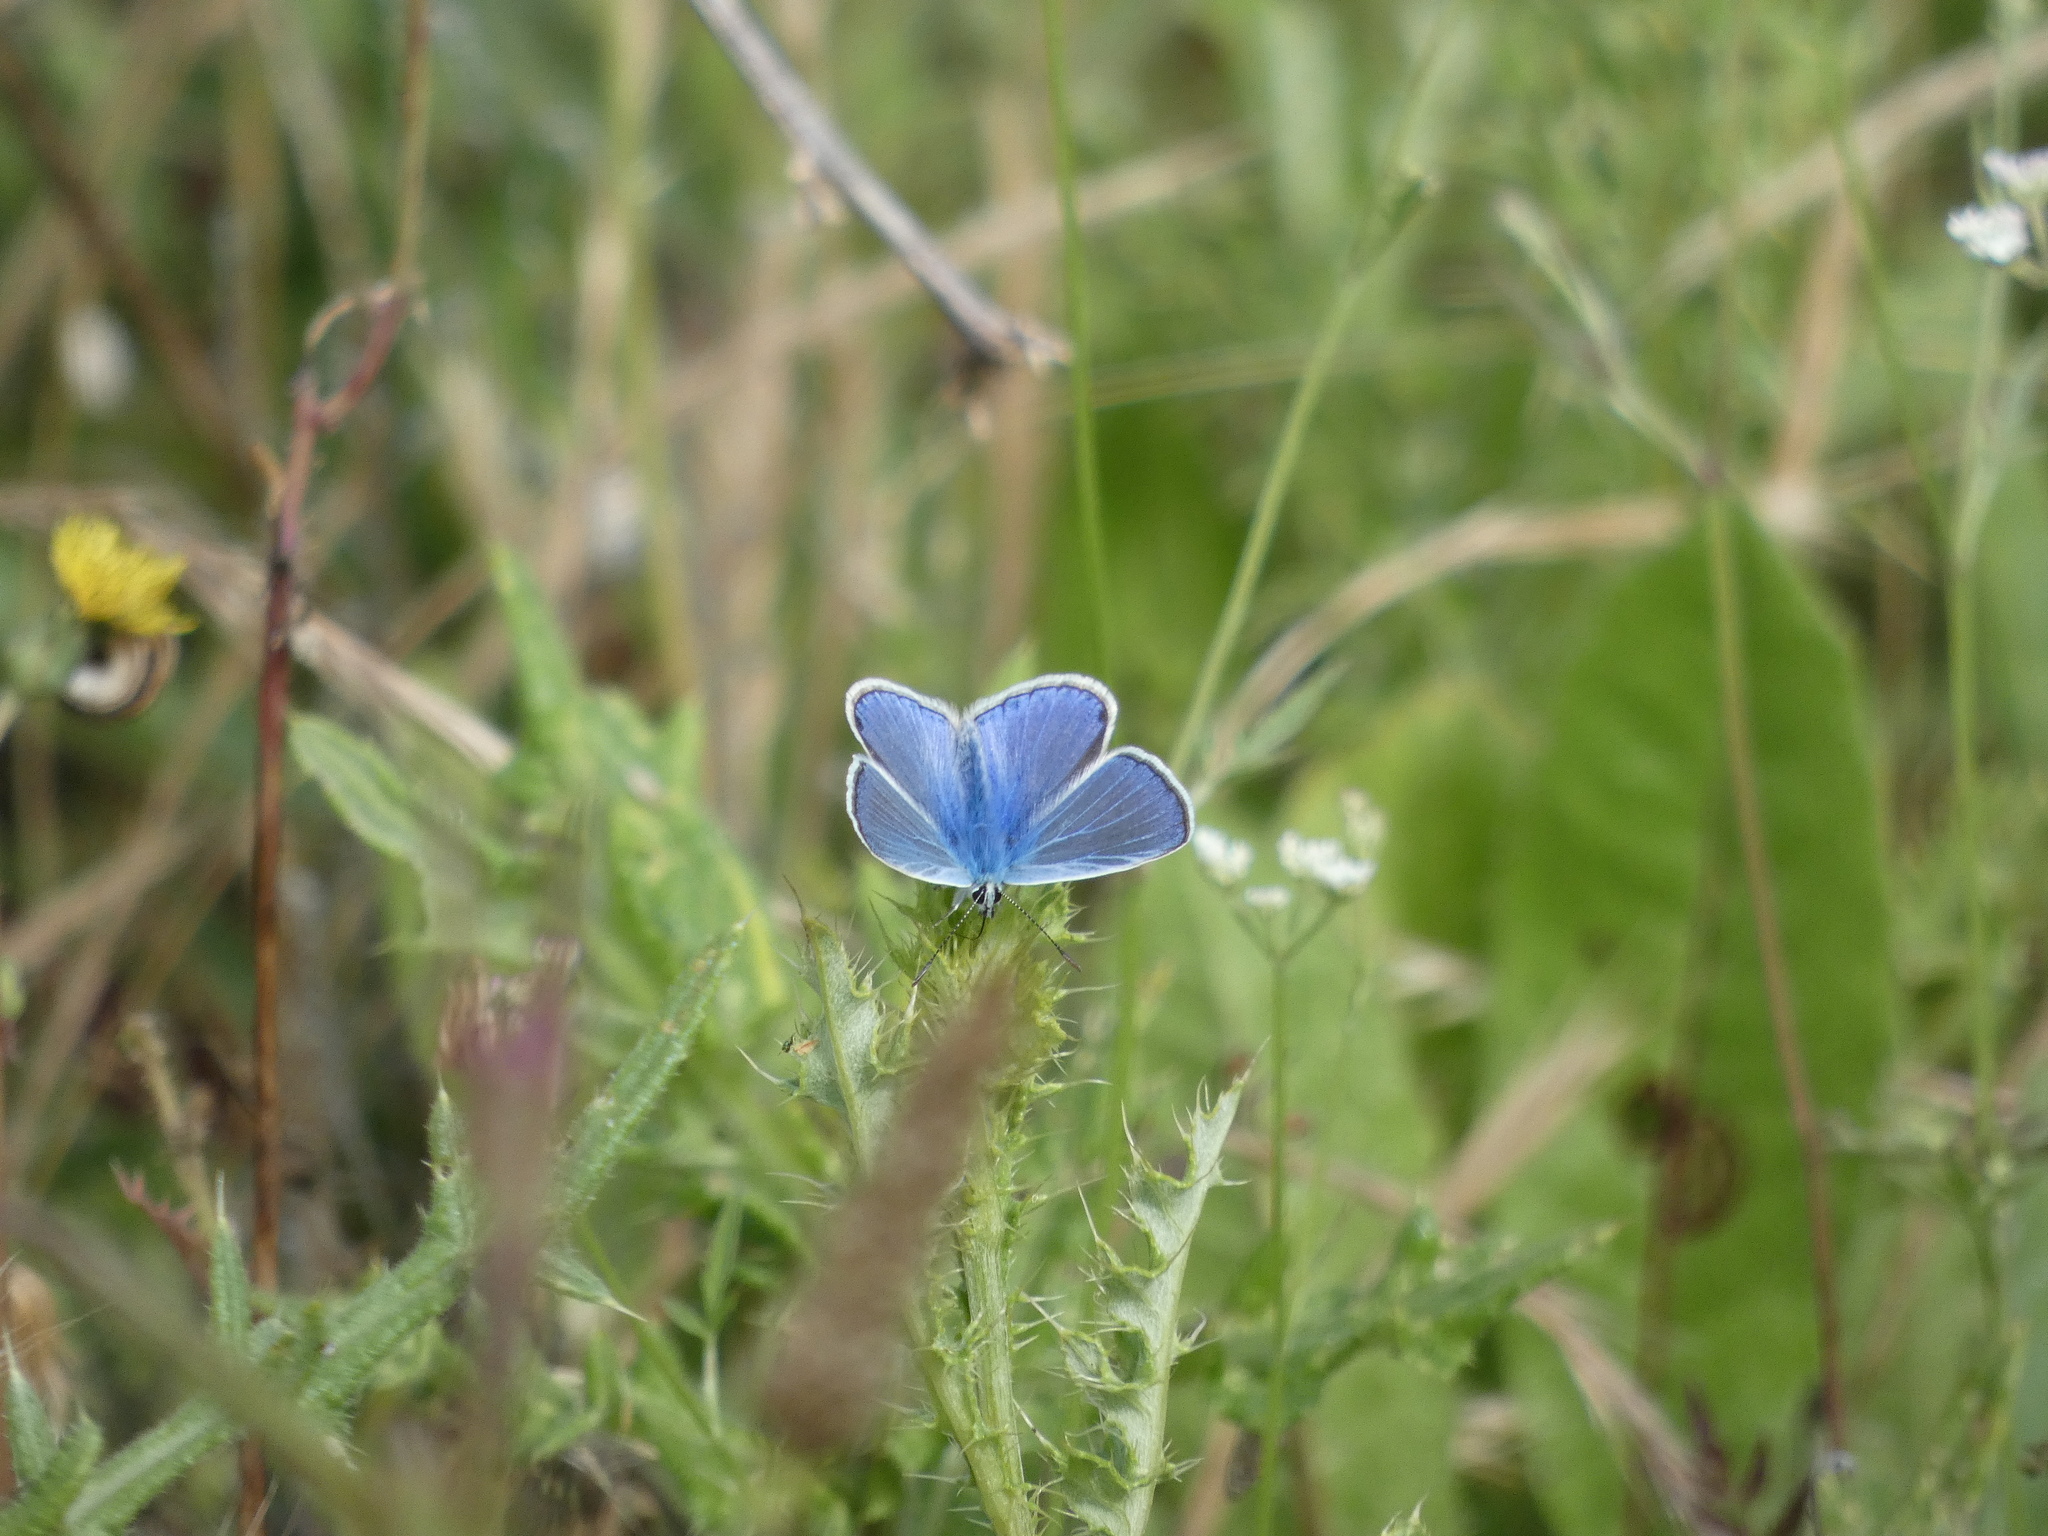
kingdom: Animalia
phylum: Arthropoda
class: Insecta
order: Lepidoptera
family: Lycaenidae
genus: Polyommatus
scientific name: Polyommatus icarus
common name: Common blue
